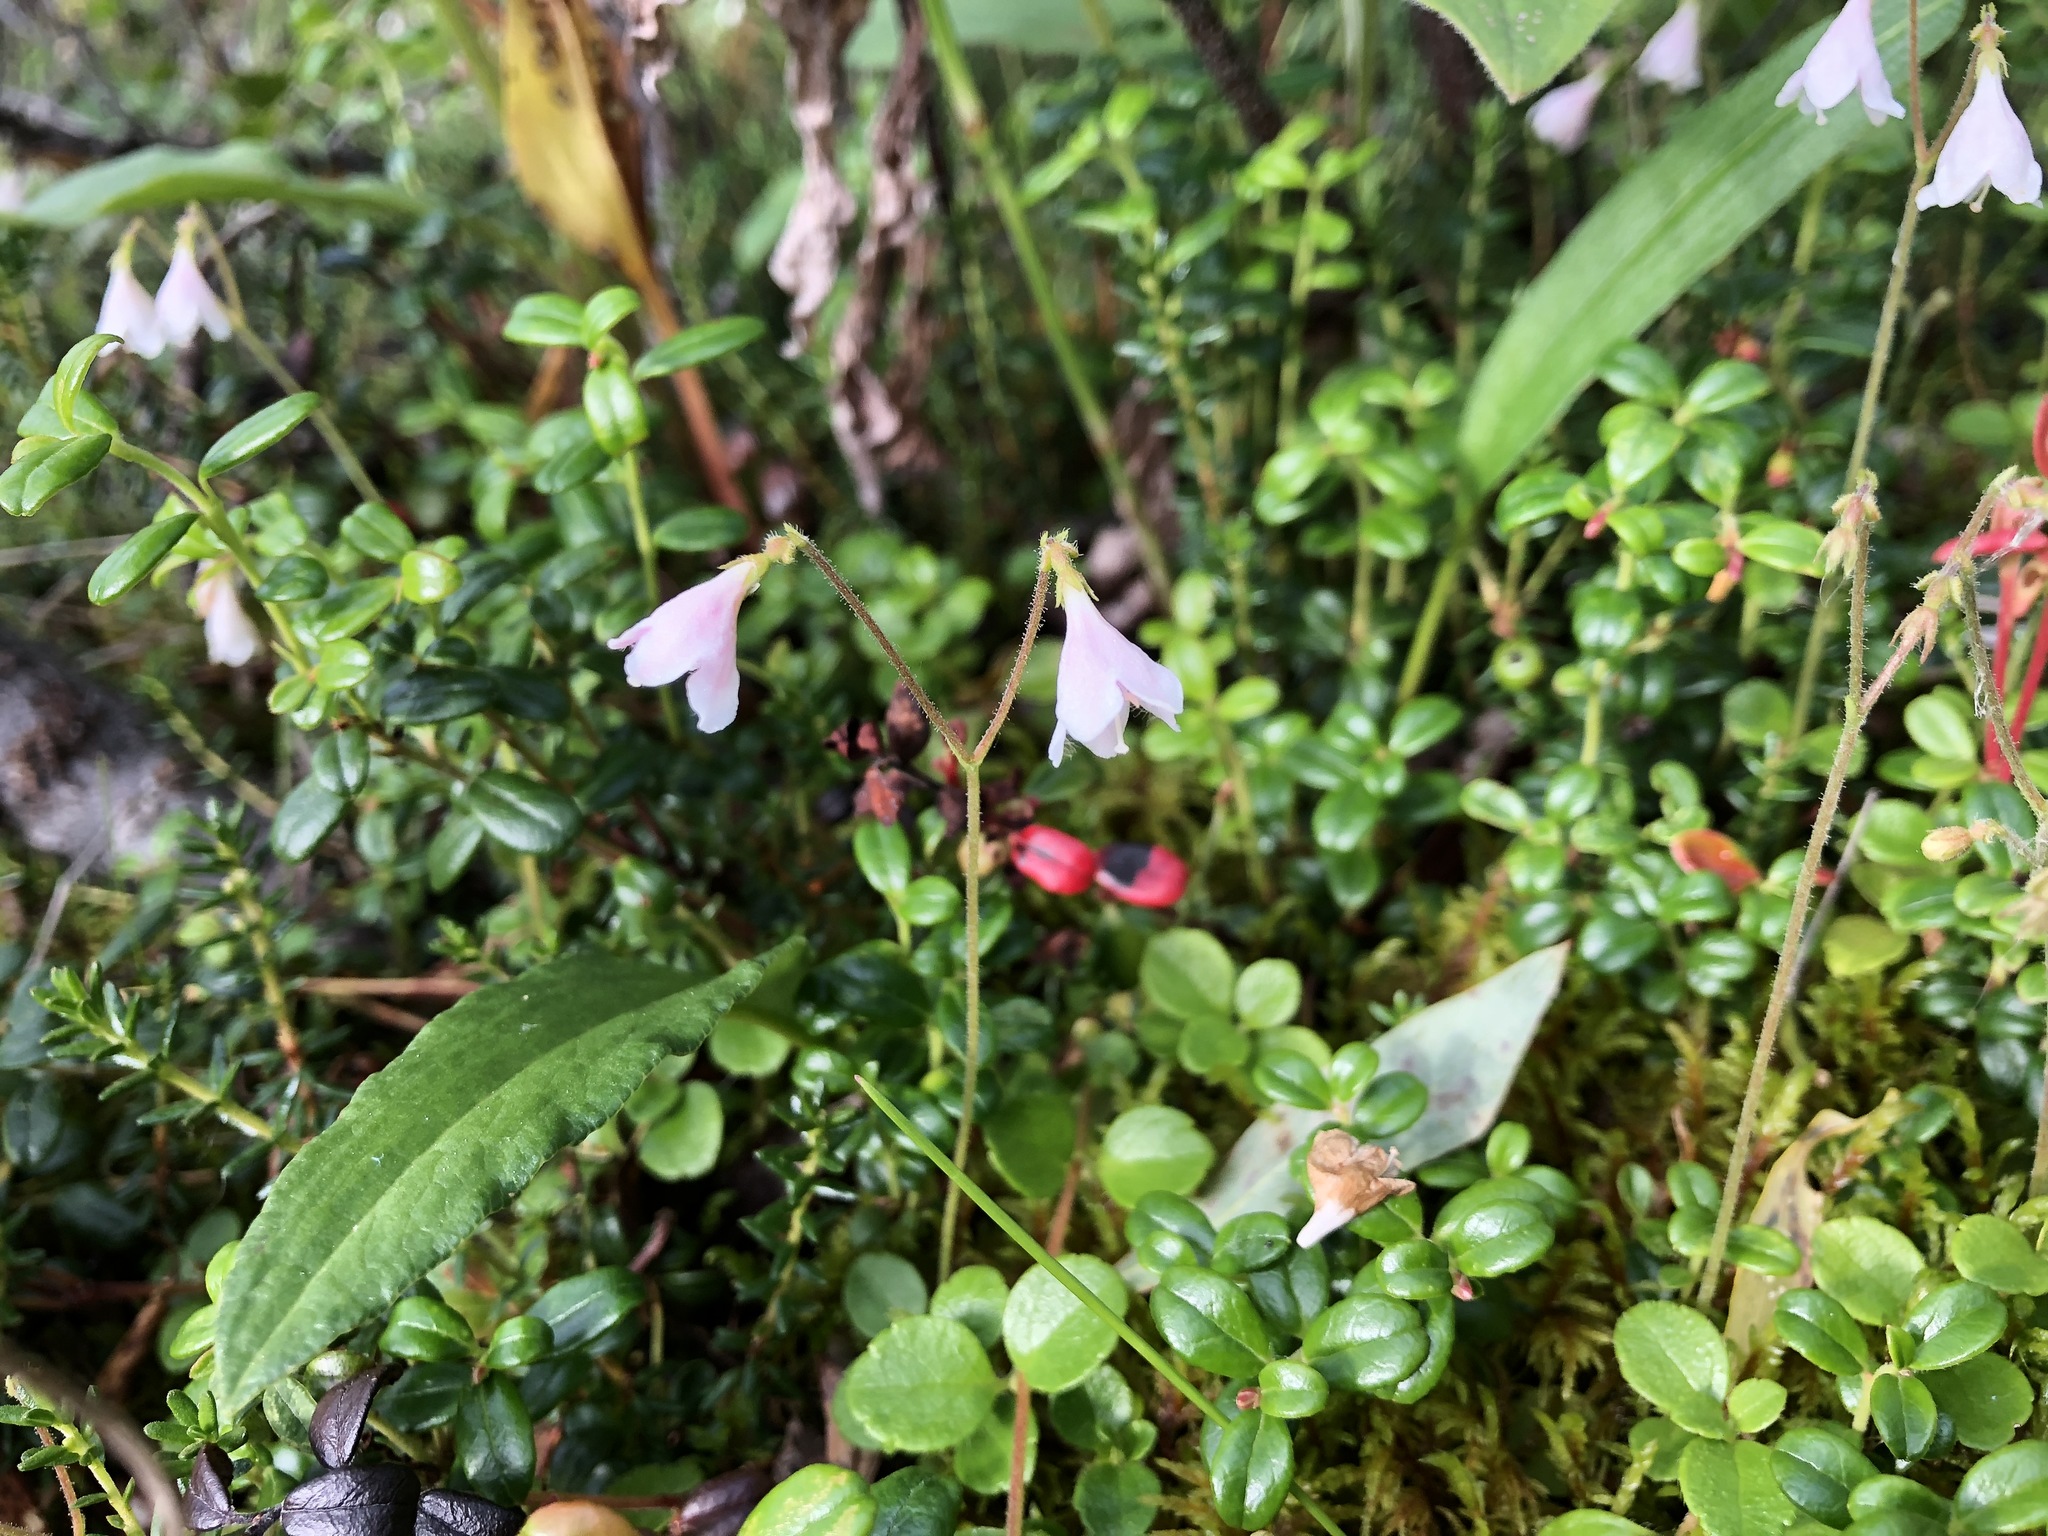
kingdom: Plantae
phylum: Tracheophyta
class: Magnoliopsida
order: Dipsacales
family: Caprifoliaceae
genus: Linnaea
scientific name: Linnaea borealis
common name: Twinflower
